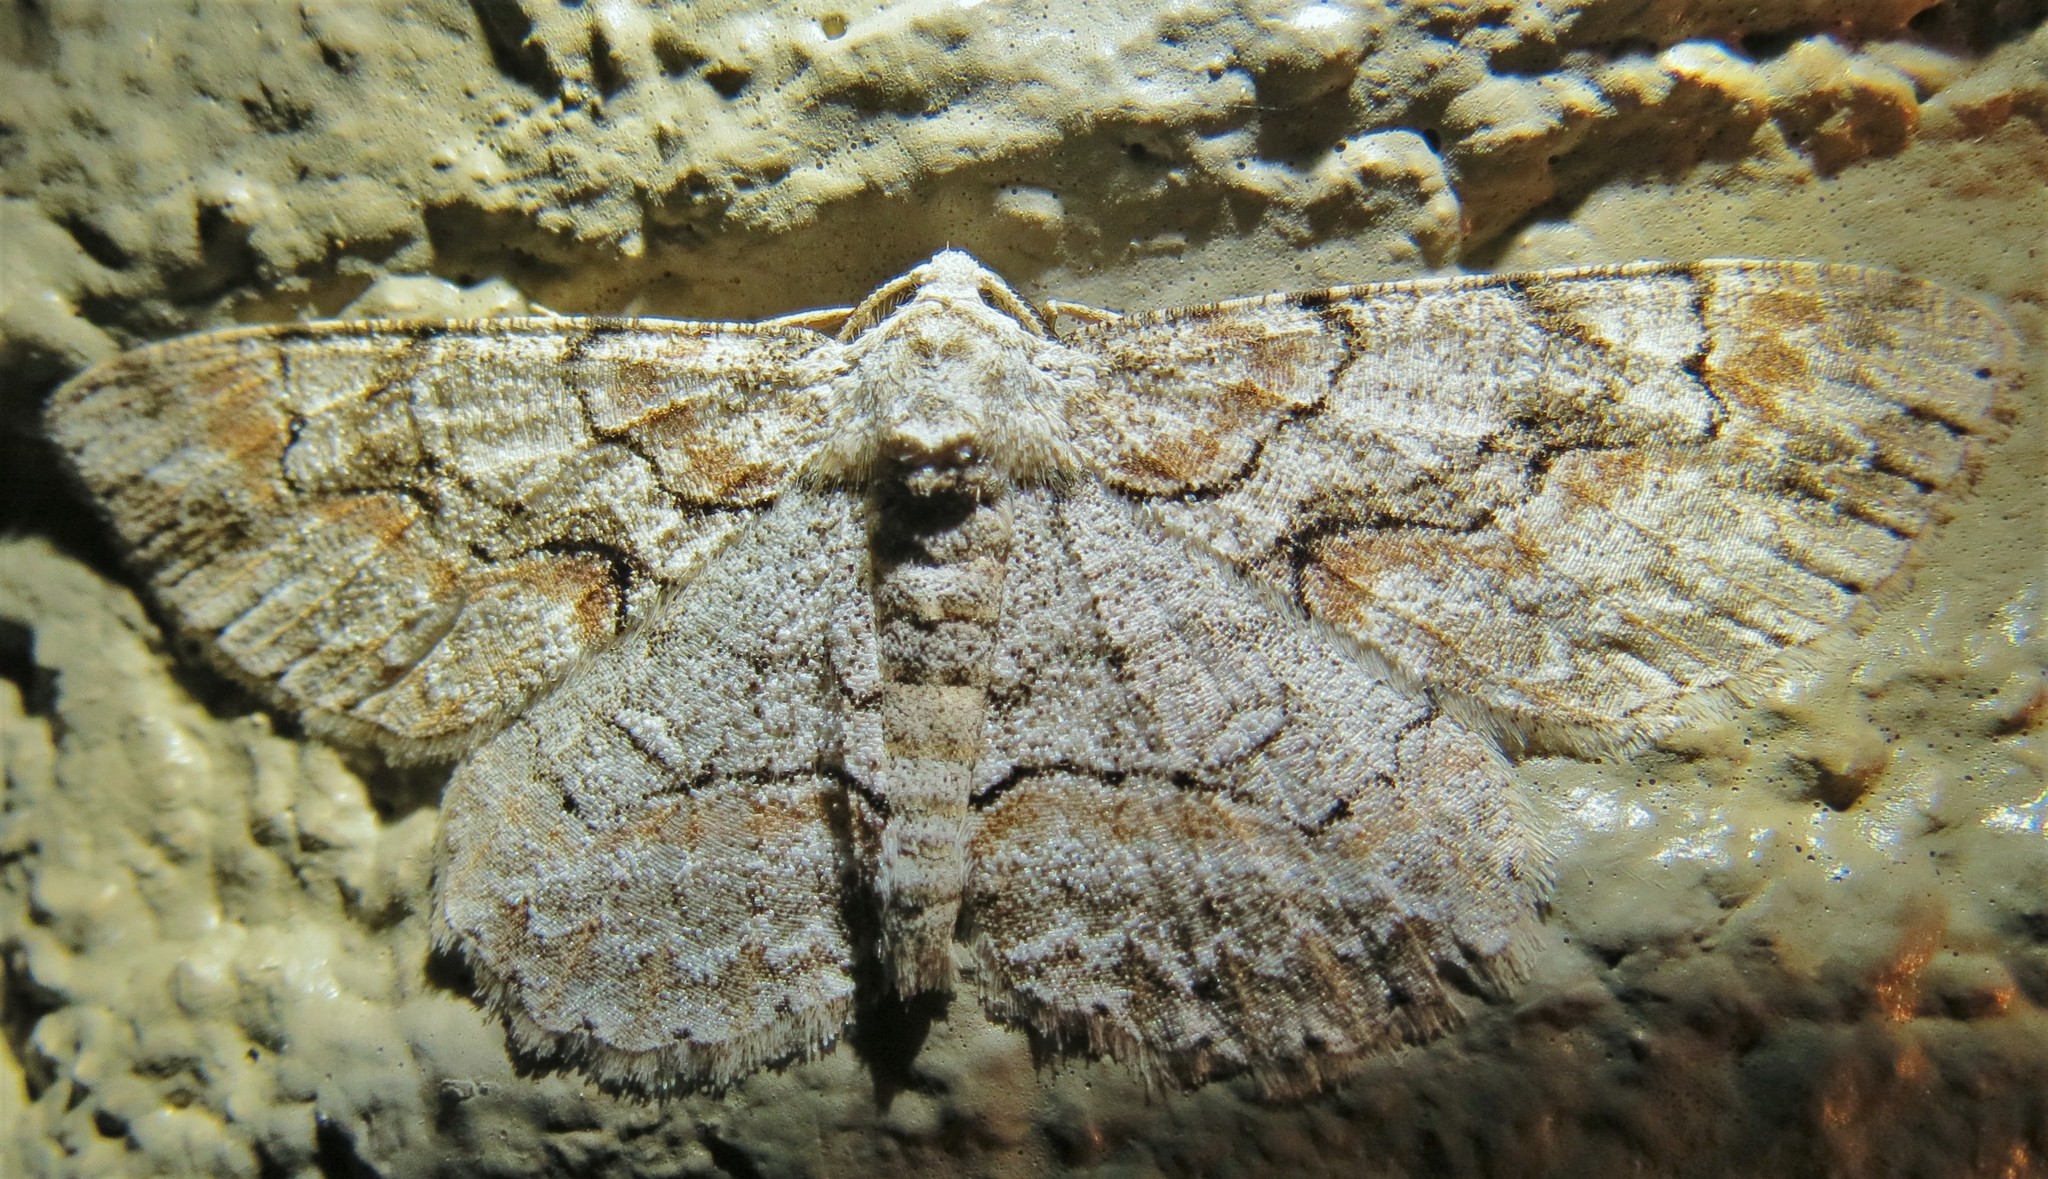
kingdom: Animalia
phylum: Arthropoda
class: Insecta
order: Lepidoptera
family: Geometridae
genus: Iridopsis
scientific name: Iridopsis defectaria
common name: Brown-shaded gray
